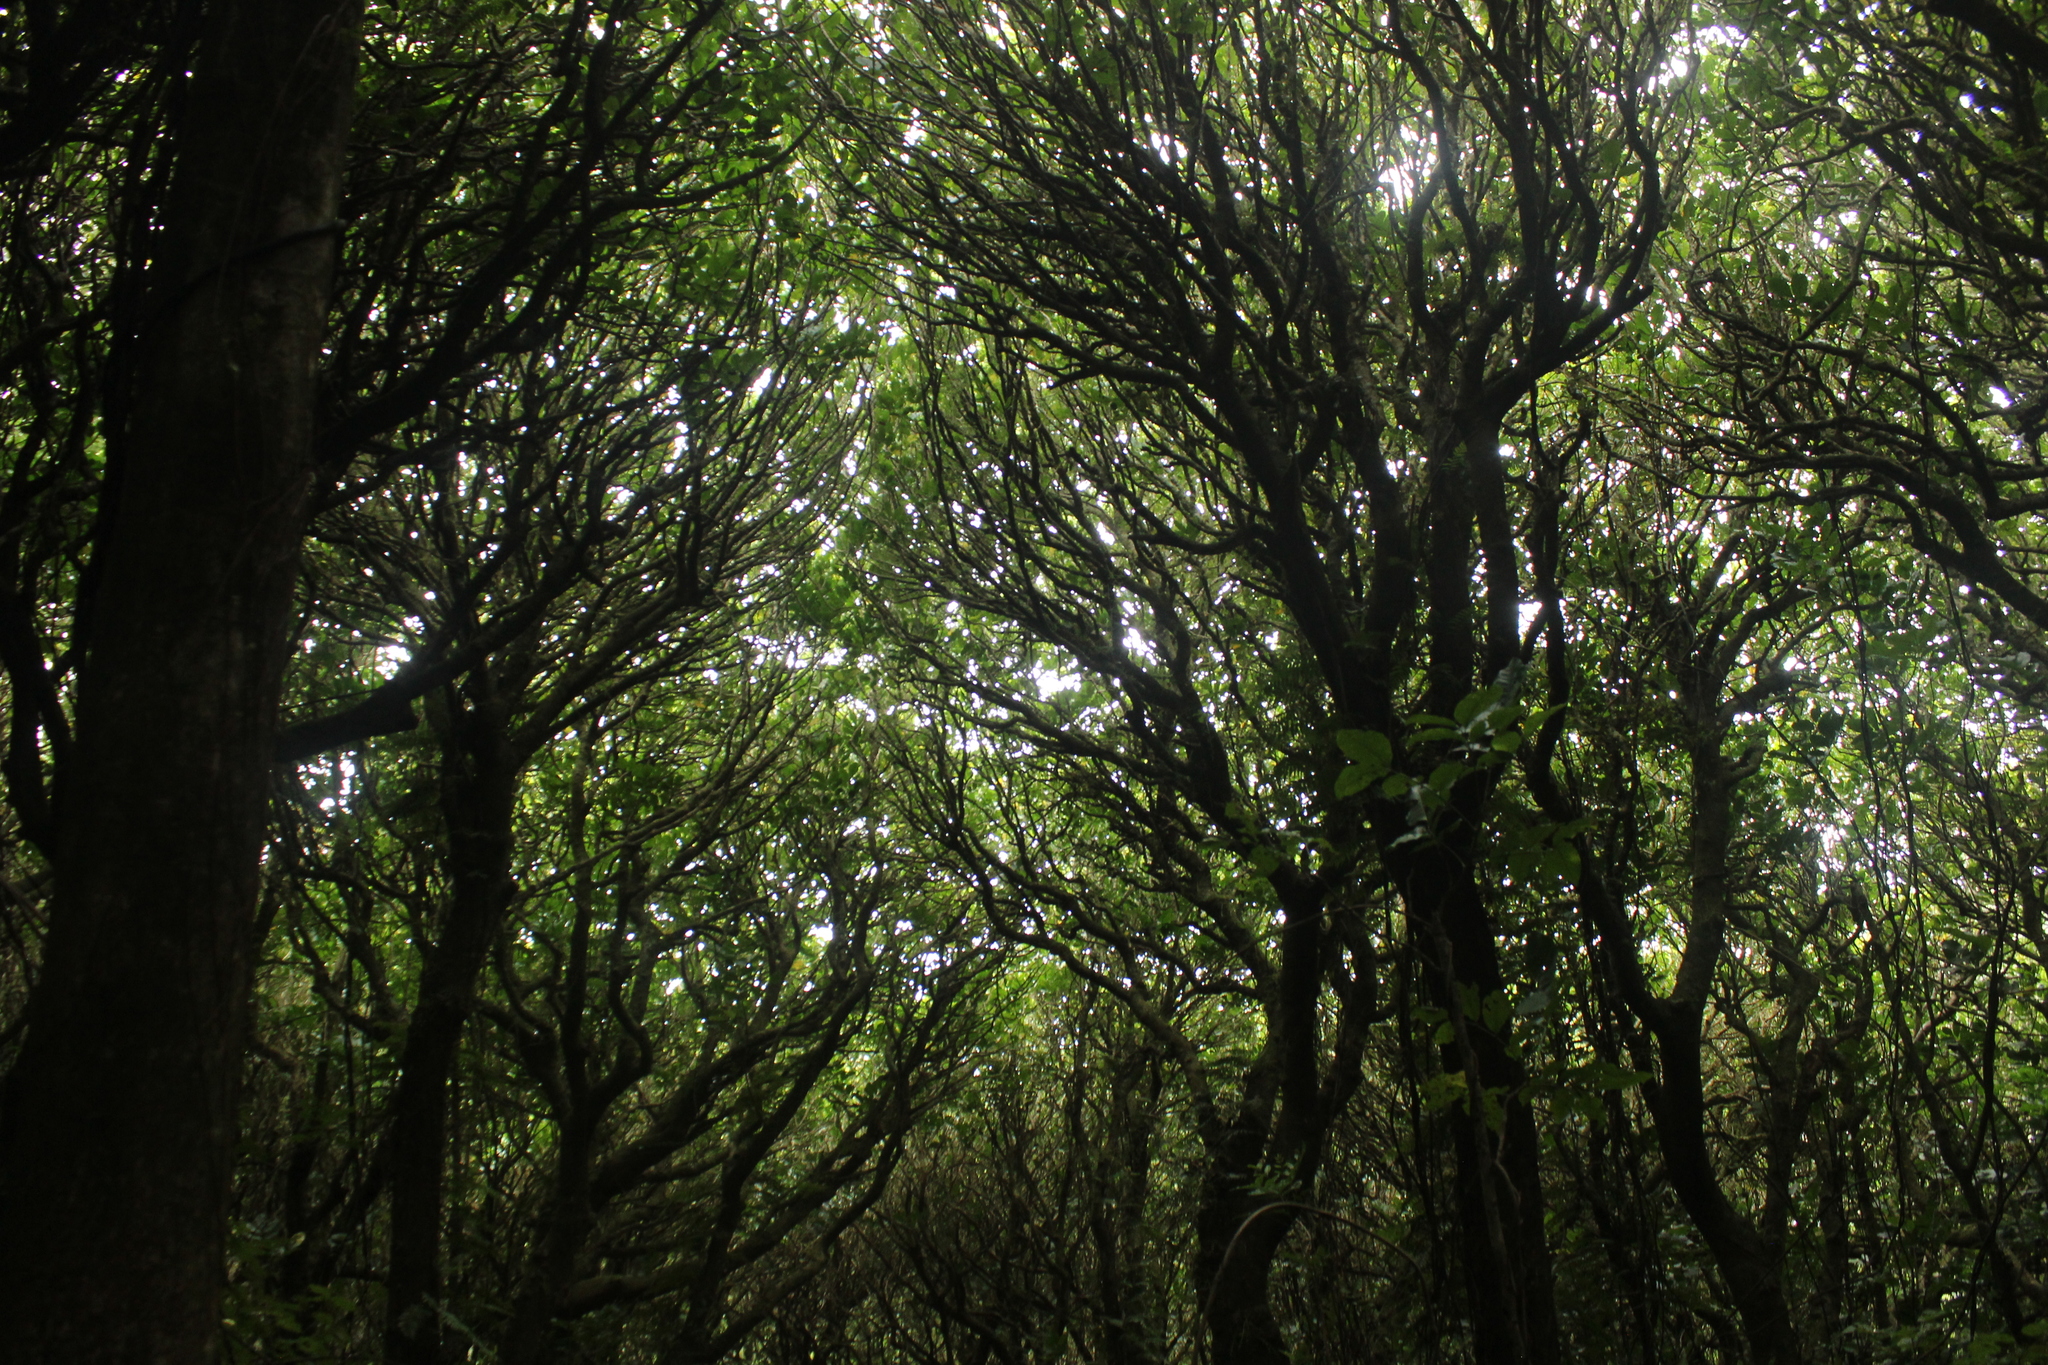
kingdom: Plantae
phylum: Tracheophyta
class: Magnoliopsida
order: Sapindales
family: Meliaceae
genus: Didymocheton
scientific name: Didymocheton spectabilis
